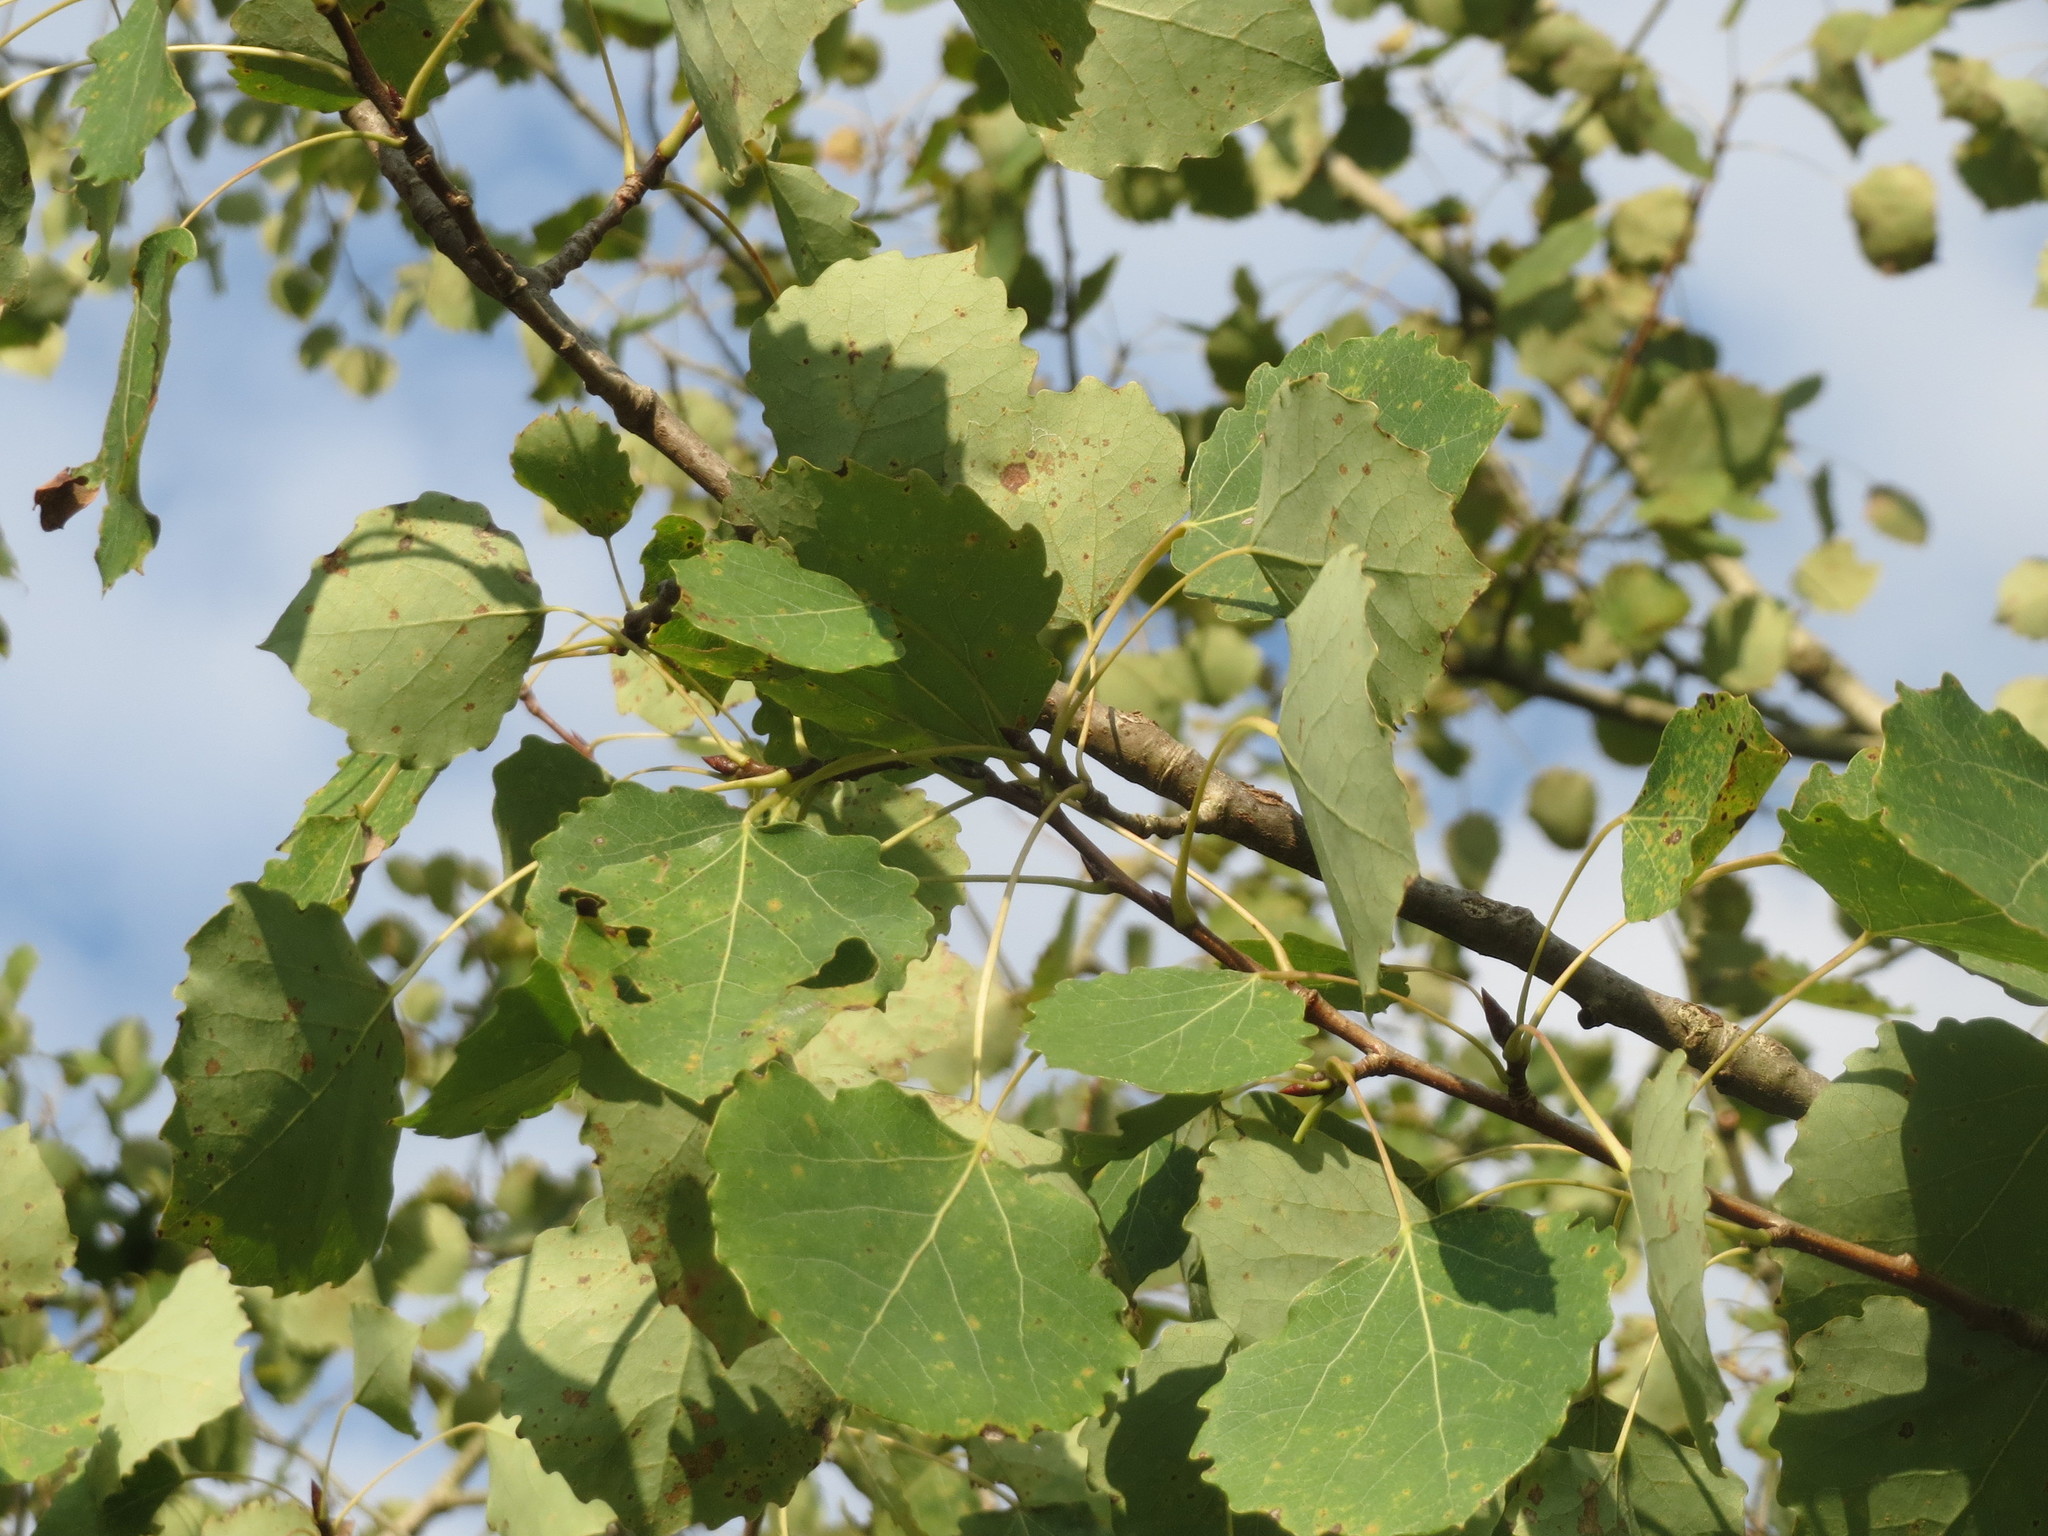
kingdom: Plantae
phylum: Tracheophyta
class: Magnoliopsida
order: Malpighiales
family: Salicaceae
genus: Populus
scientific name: Populus tremula
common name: European aspen
